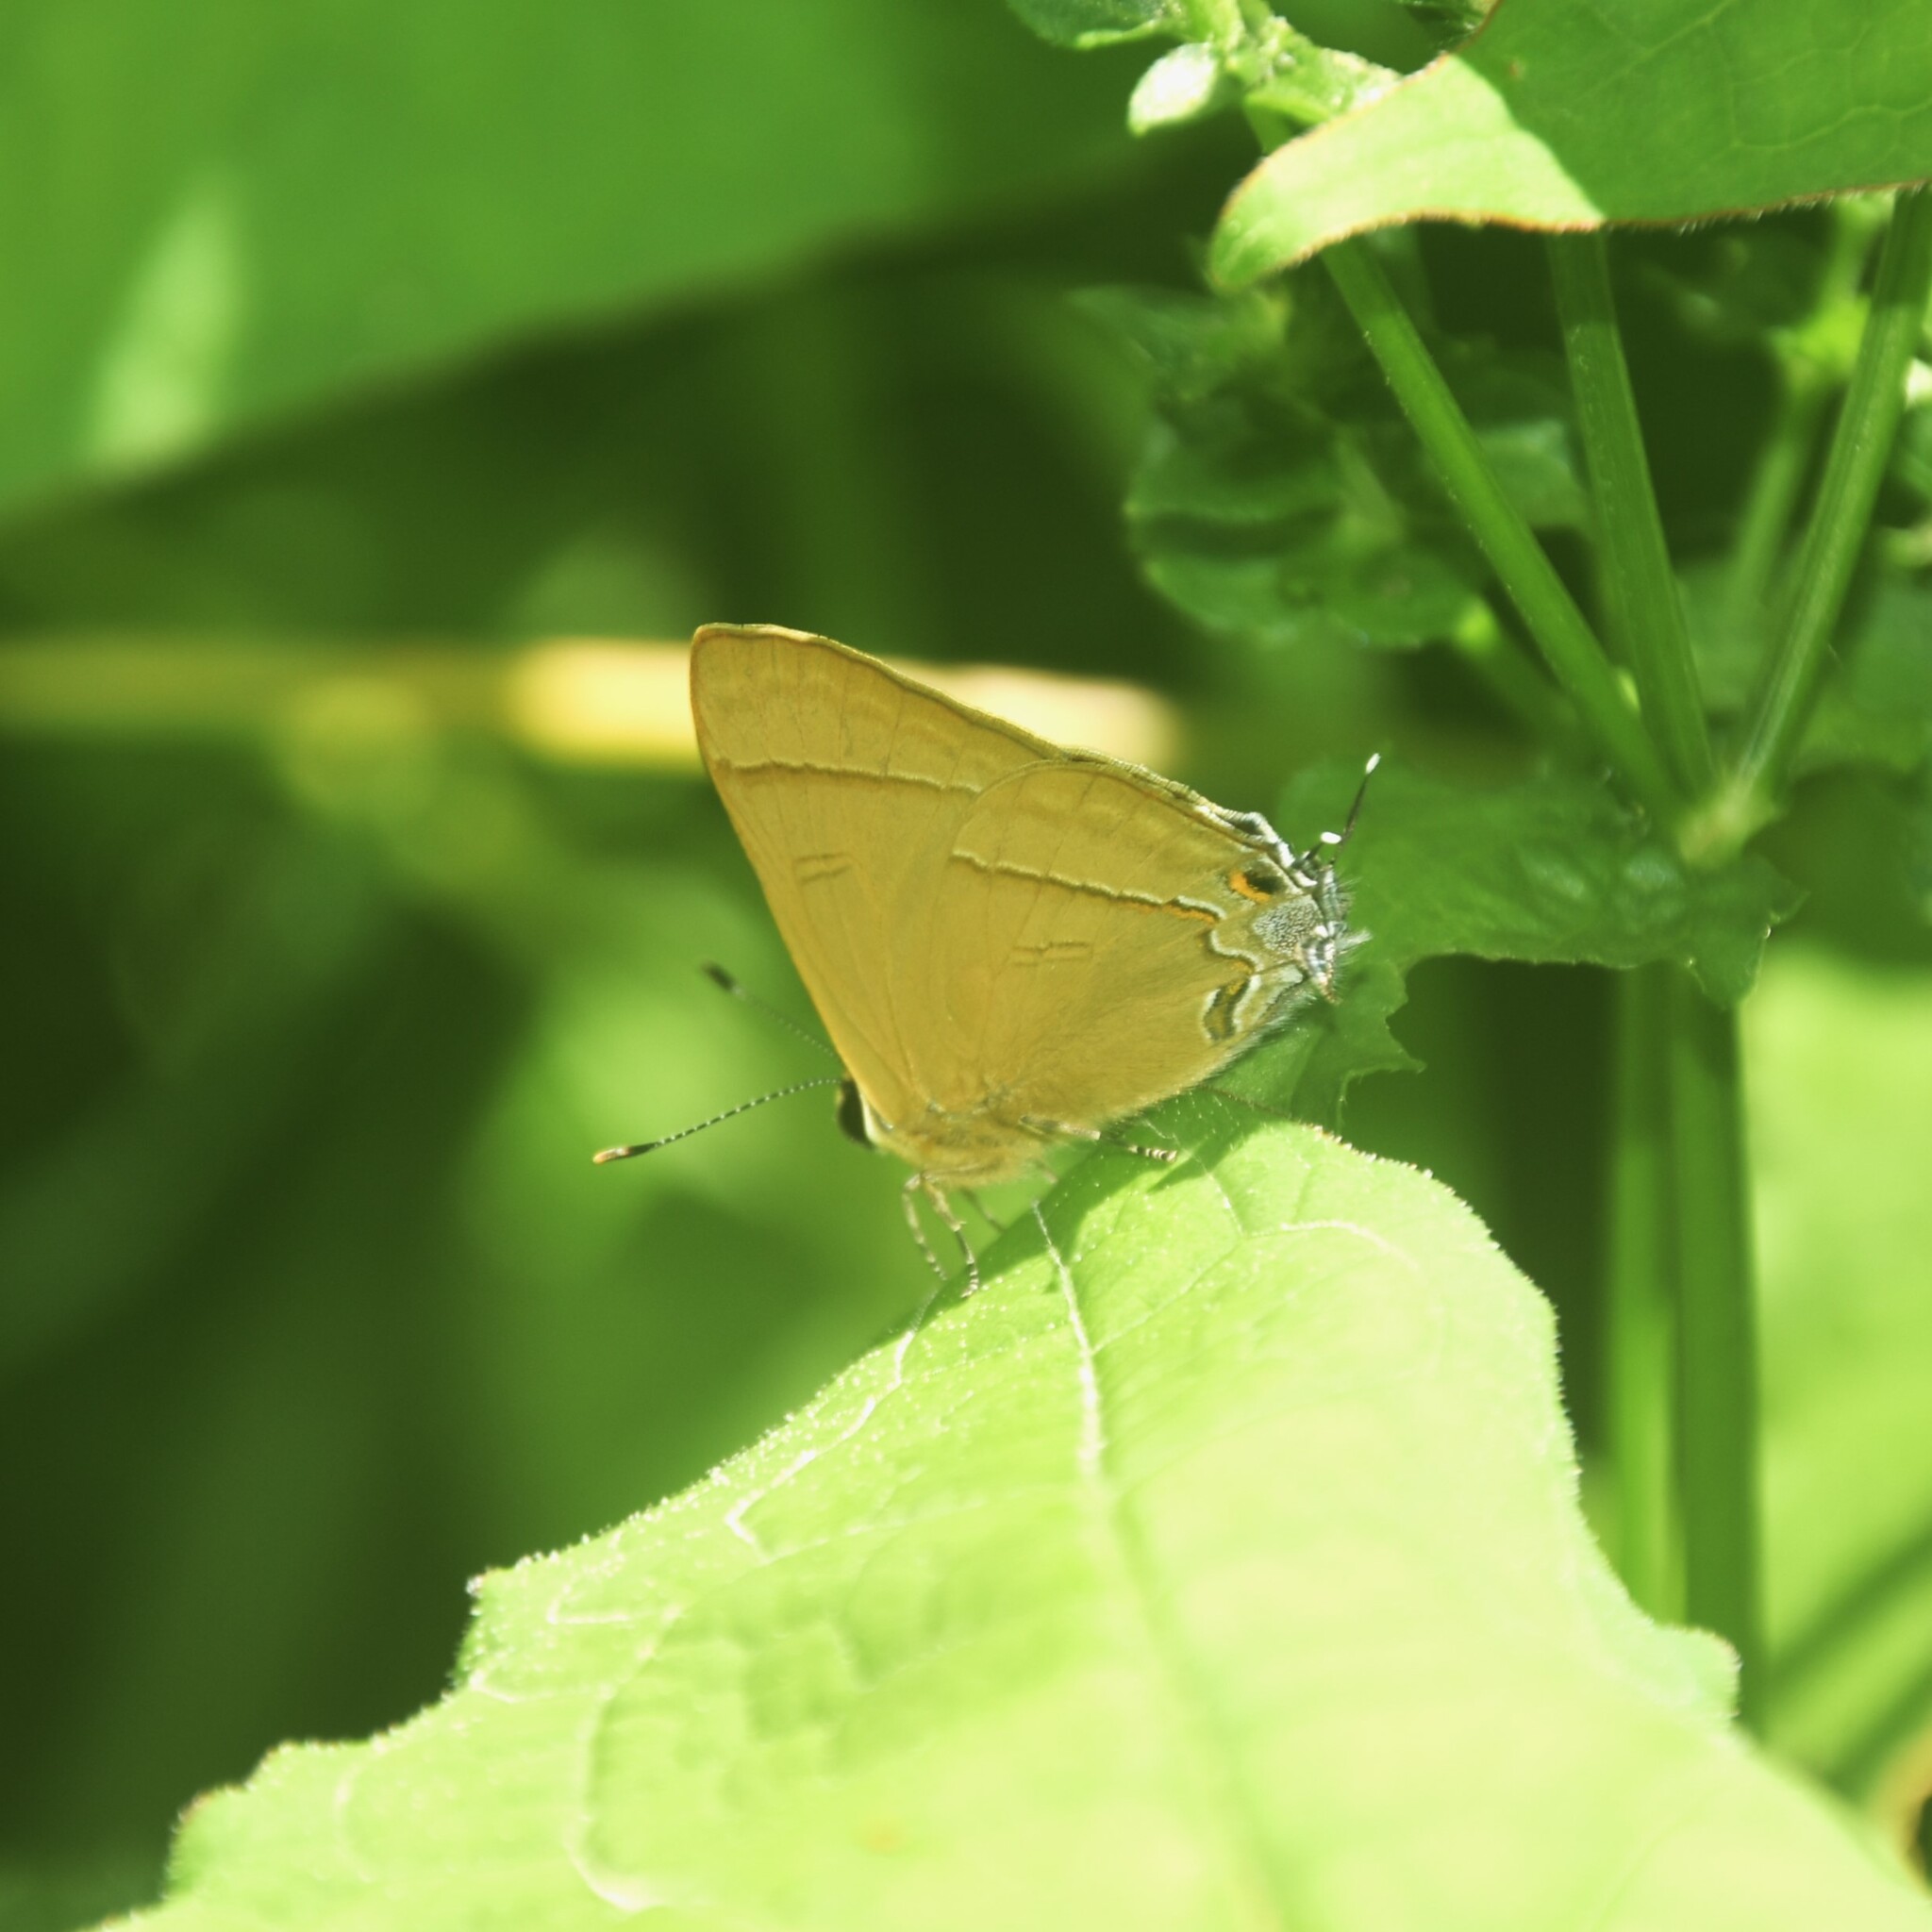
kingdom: Animalia
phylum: Arthropoda
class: Insecta
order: Lepidoptera
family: Lycaenidae
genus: Rapala
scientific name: Rapala nissa
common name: Common flash
